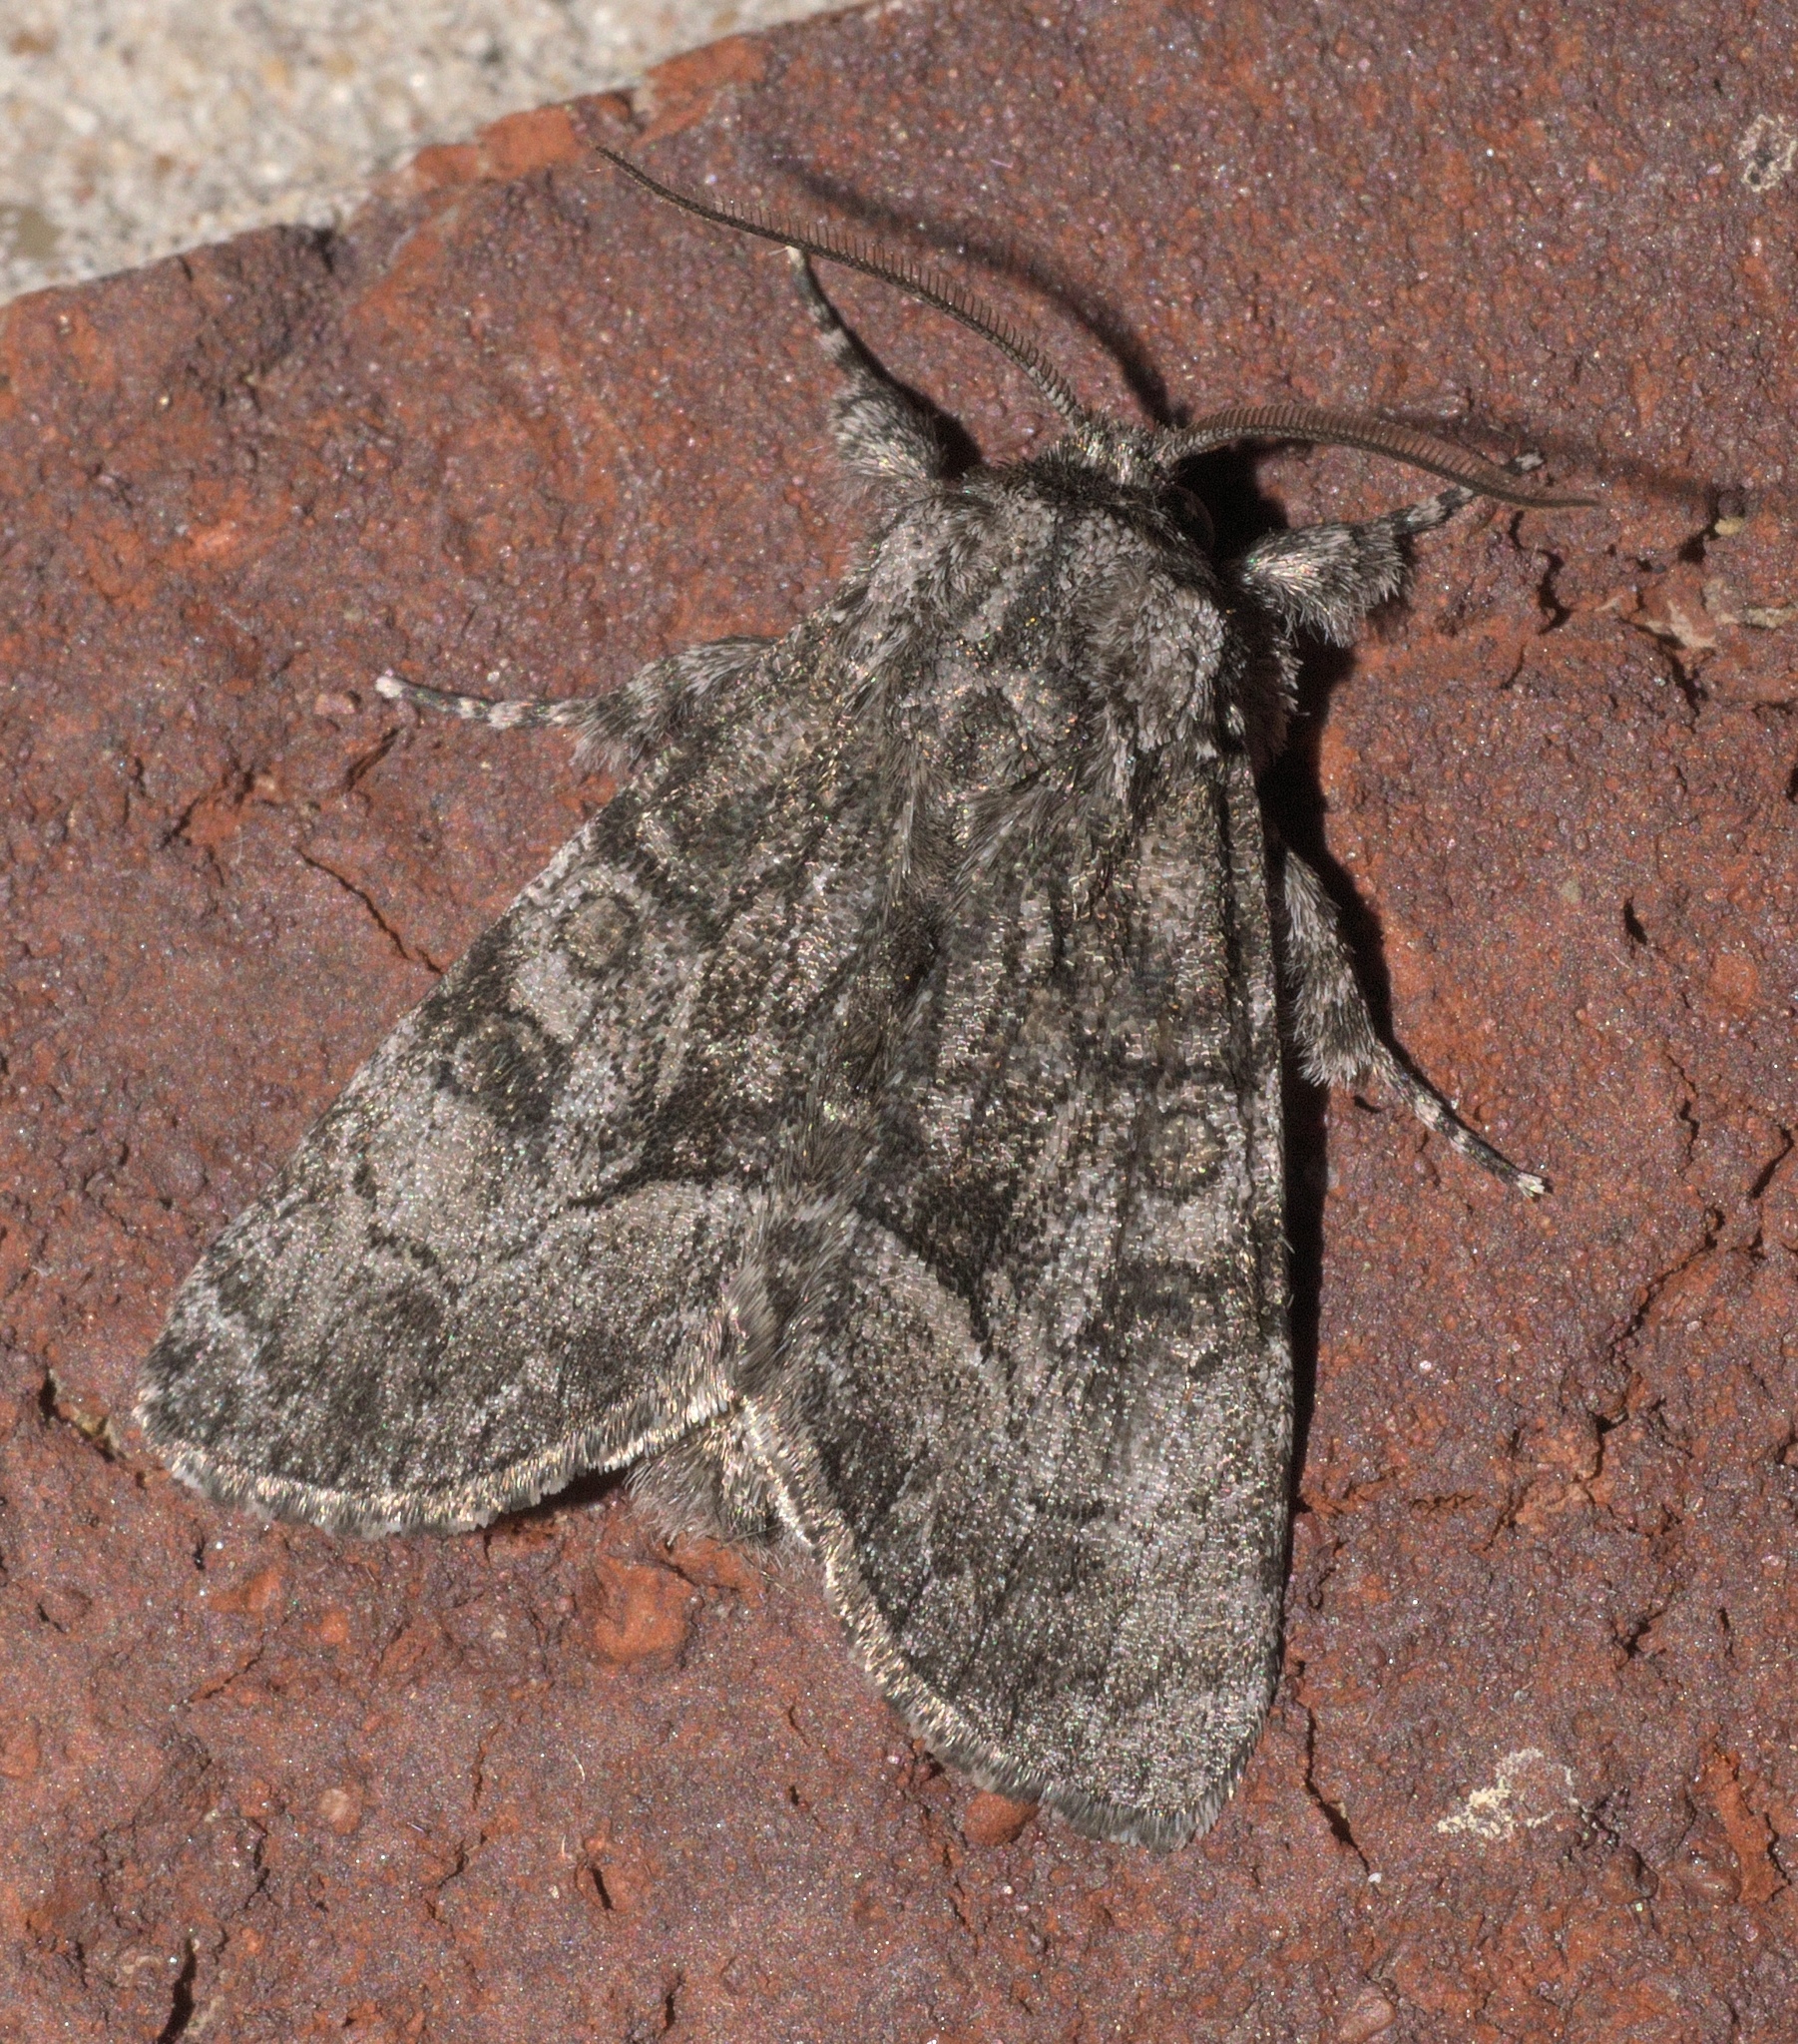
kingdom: Animalia
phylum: Arthropoda
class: Insecta
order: Lepidoptera
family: Noctuidae
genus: Raphia
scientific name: Raphia frater
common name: Brother
